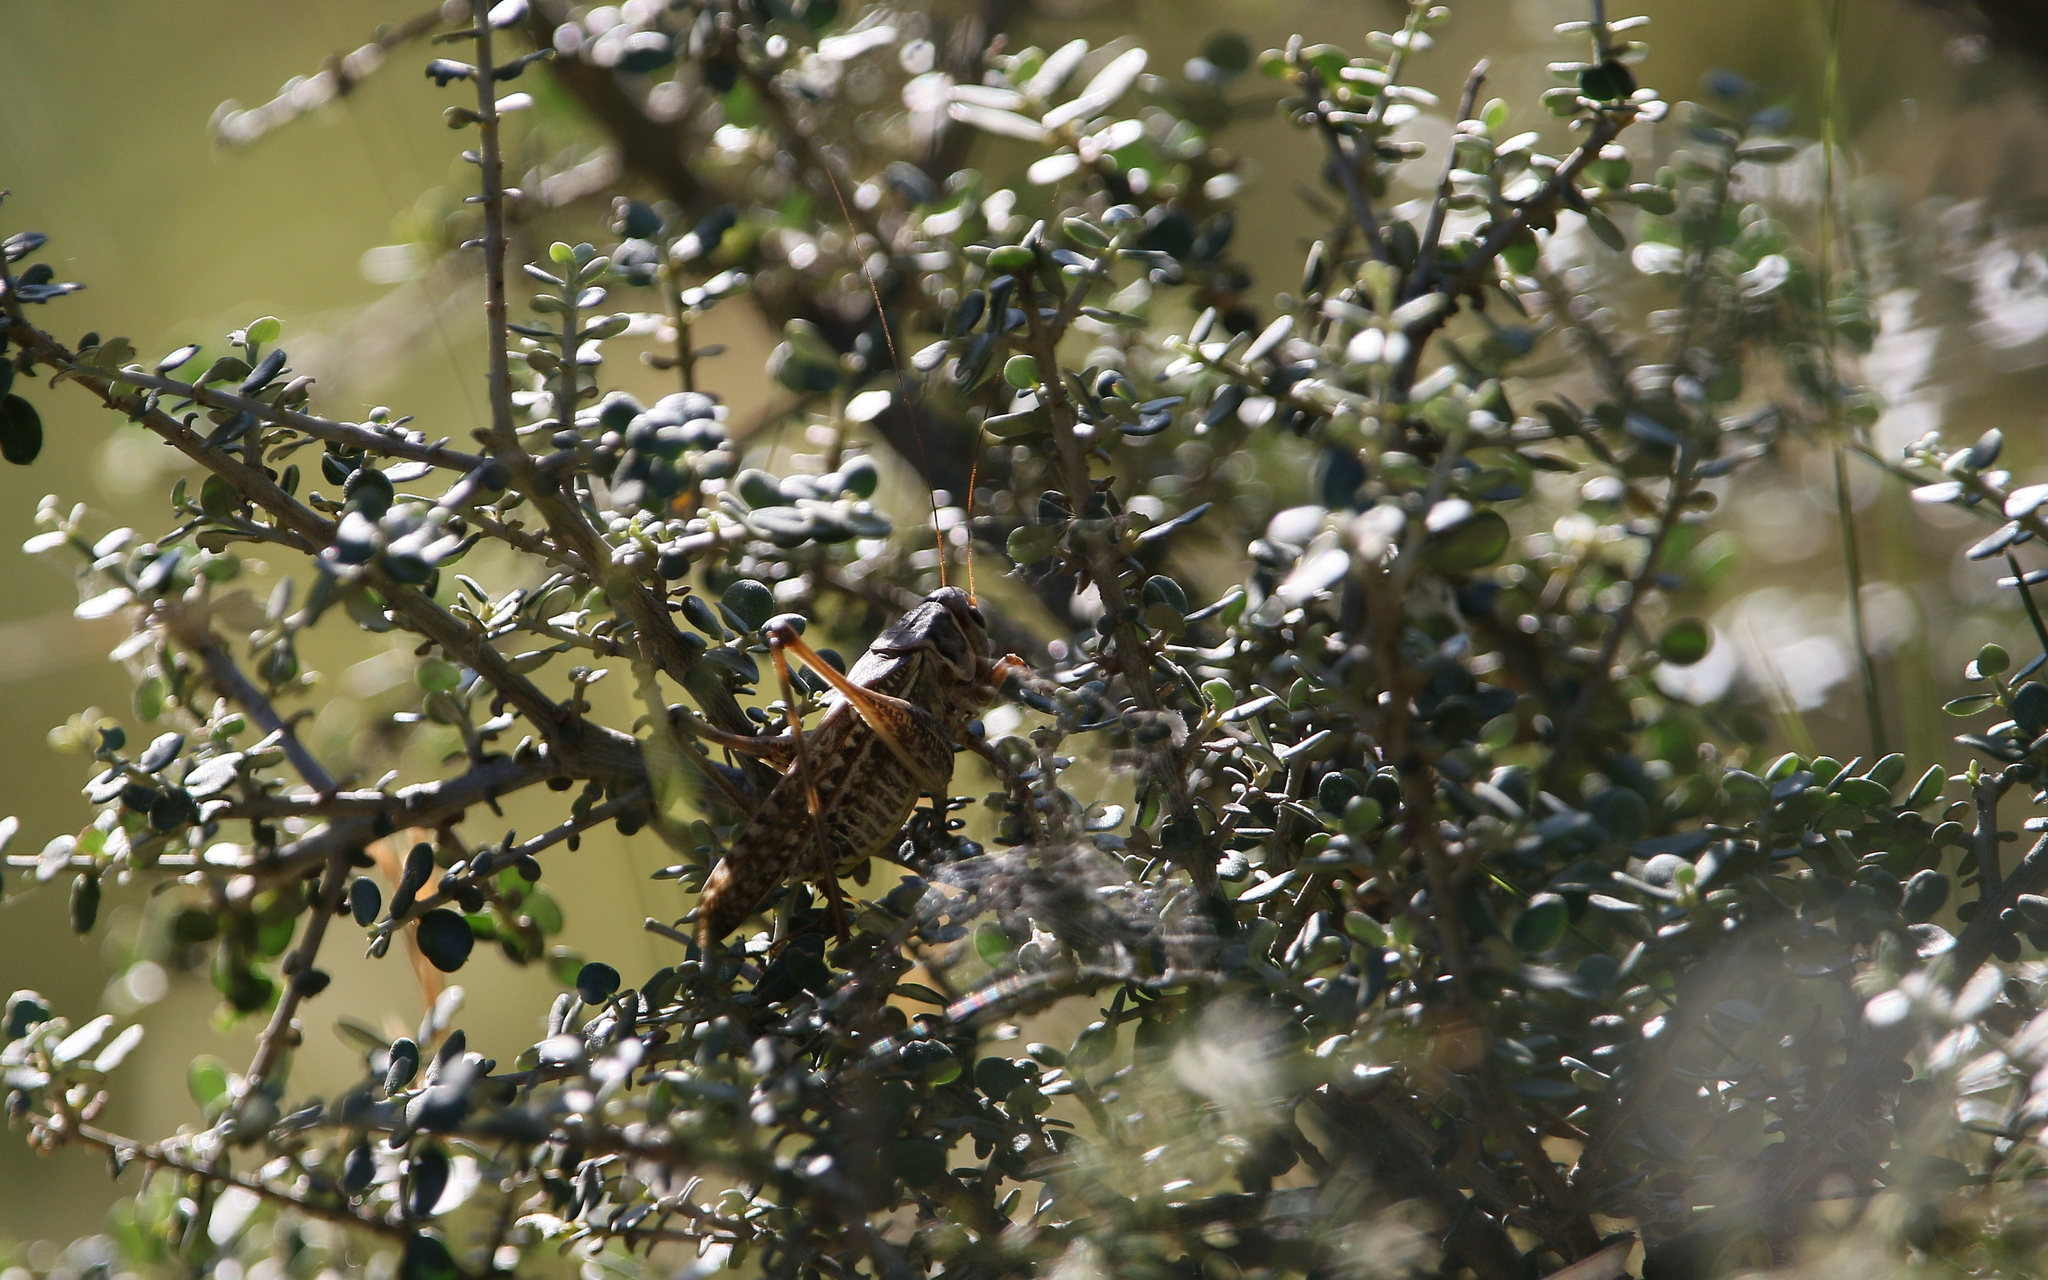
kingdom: Animalia
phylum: Arthropoda
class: Insecta
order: Orthoptera
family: Tettigoniidae
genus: Decticus
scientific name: Decticus albifrons
